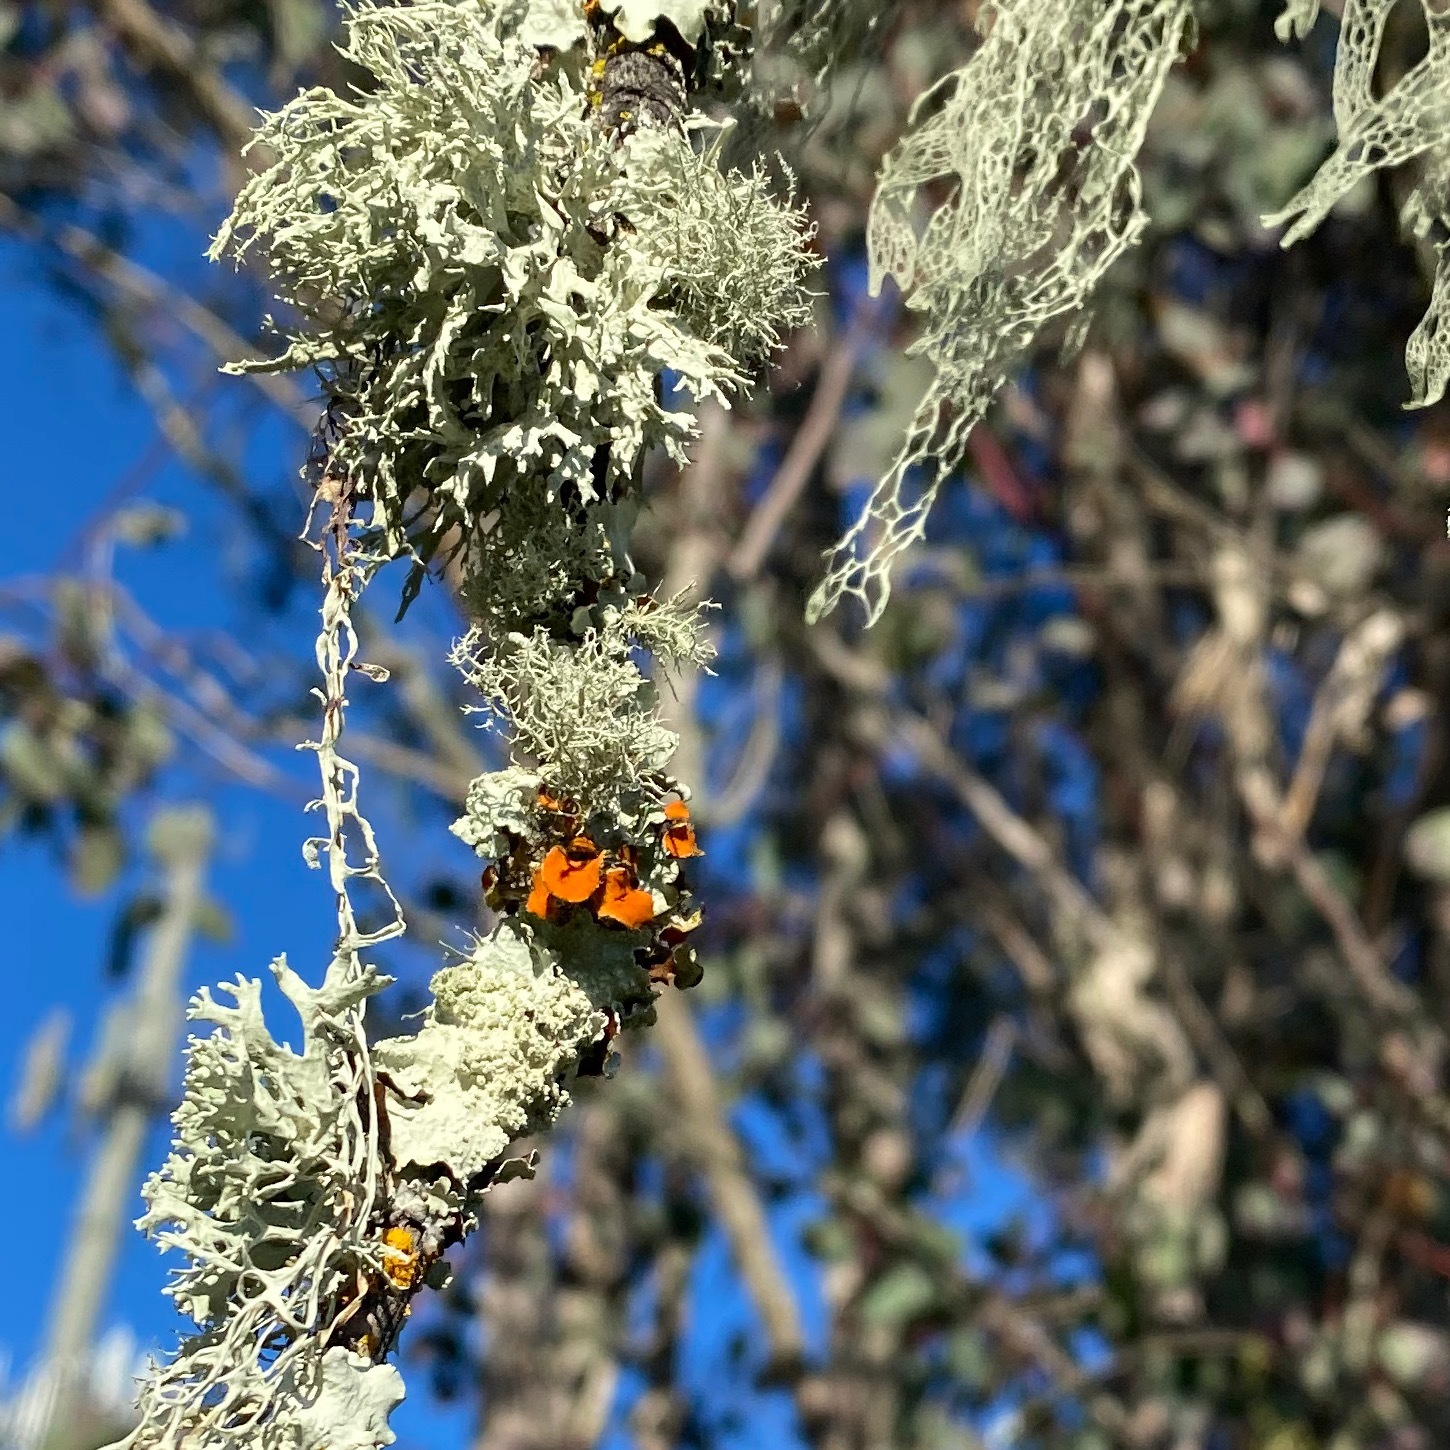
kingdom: Fungi
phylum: Ascomycota
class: Lecanoromycetes
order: Teloschistales
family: Teloschistaceae
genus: Niorma
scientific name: Niorma chrysophthalma
